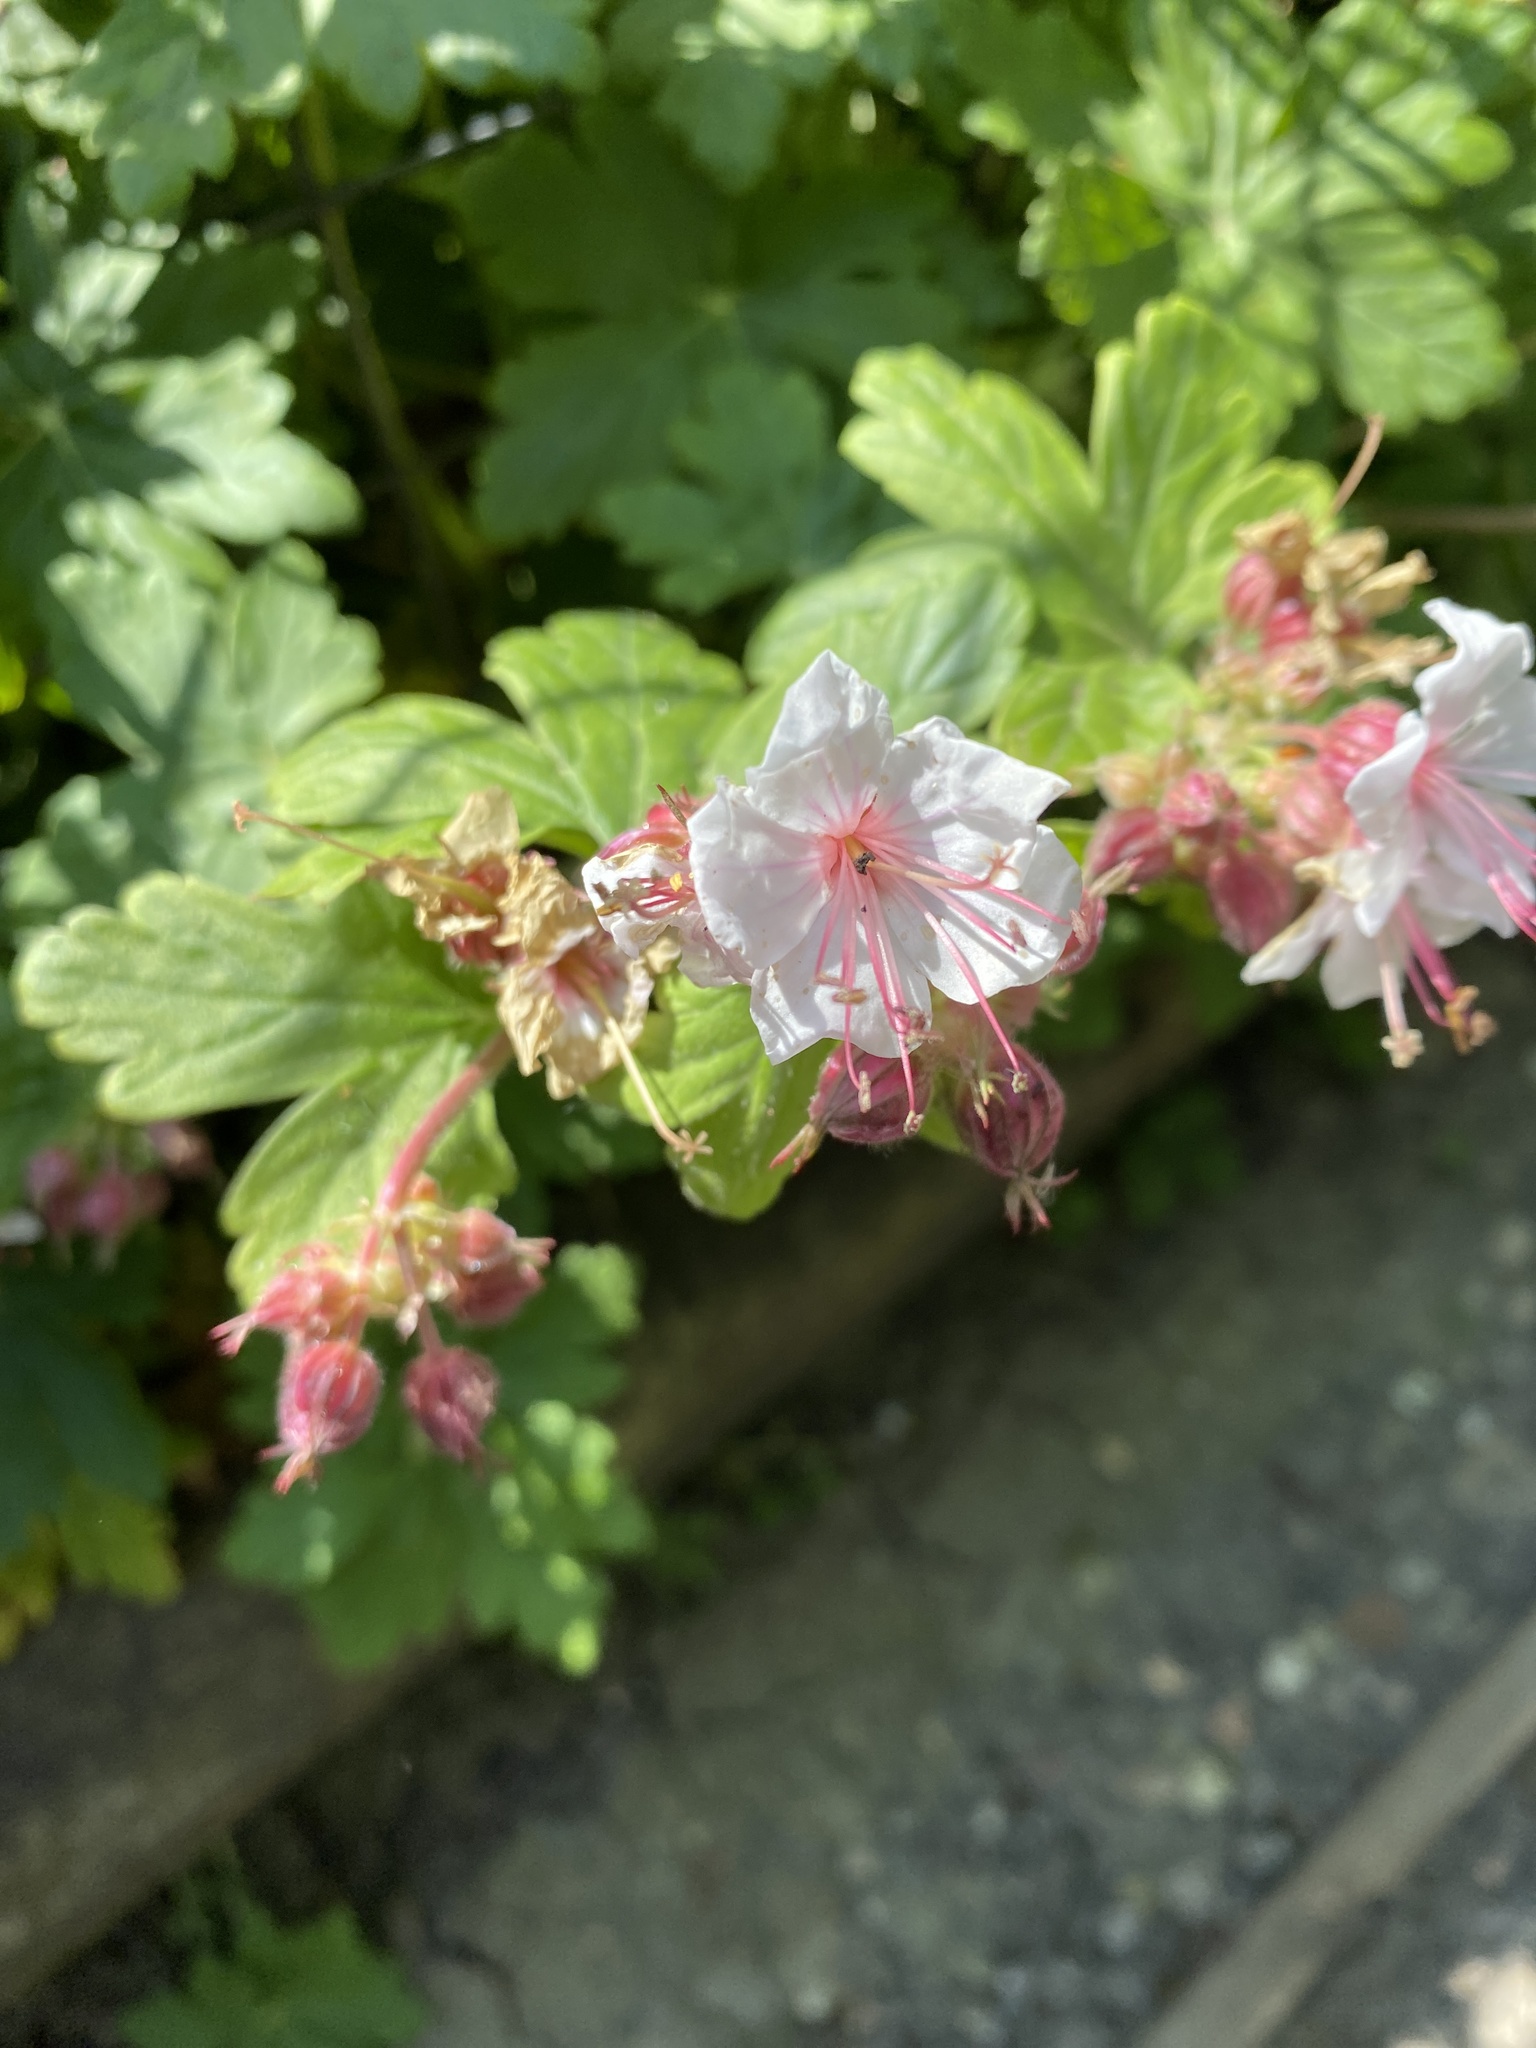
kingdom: Plantae
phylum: Tracheophyta
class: Magnoliopsida
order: Geraniales
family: Geraniaceae
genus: Geranium
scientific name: Geranium macrorrhizum
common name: Rock crane's-bill
